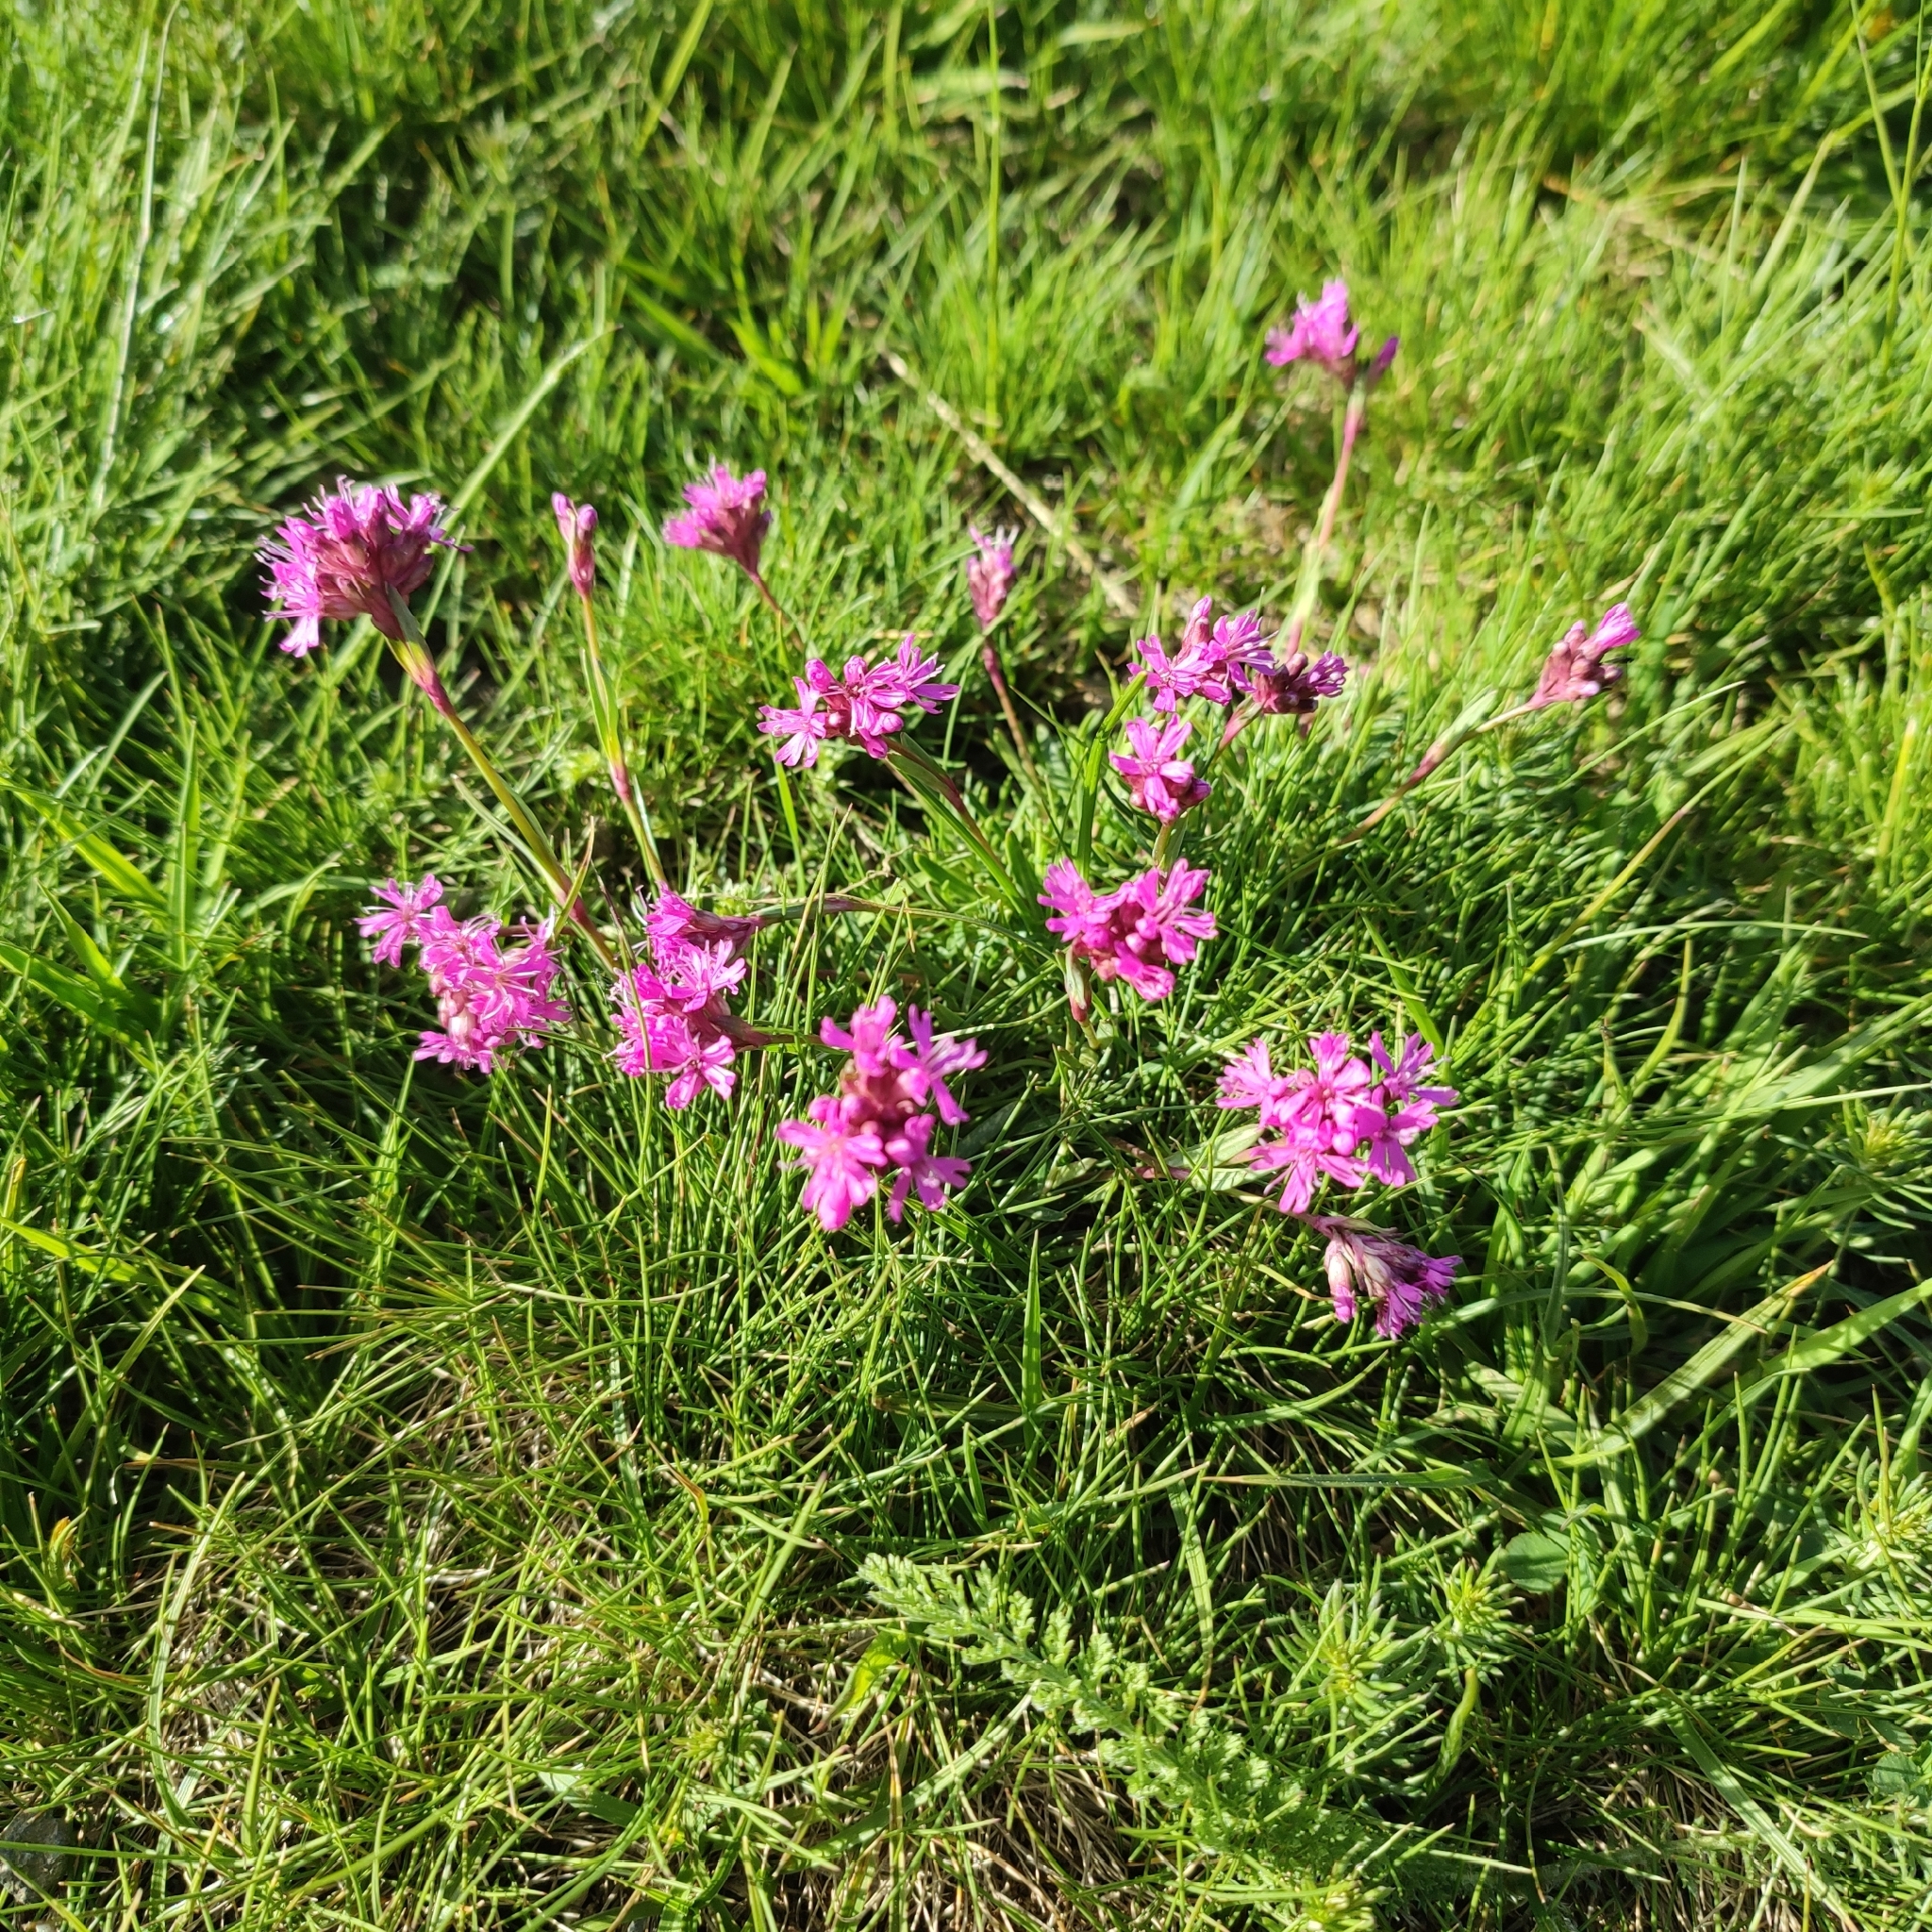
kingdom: Plantae
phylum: Tracheophyta
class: Magnoliopsida
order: Caryophyllales
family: Caryophyllaceae
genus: Viscaria
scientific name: Viscaria alpina
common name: Alpine campion
